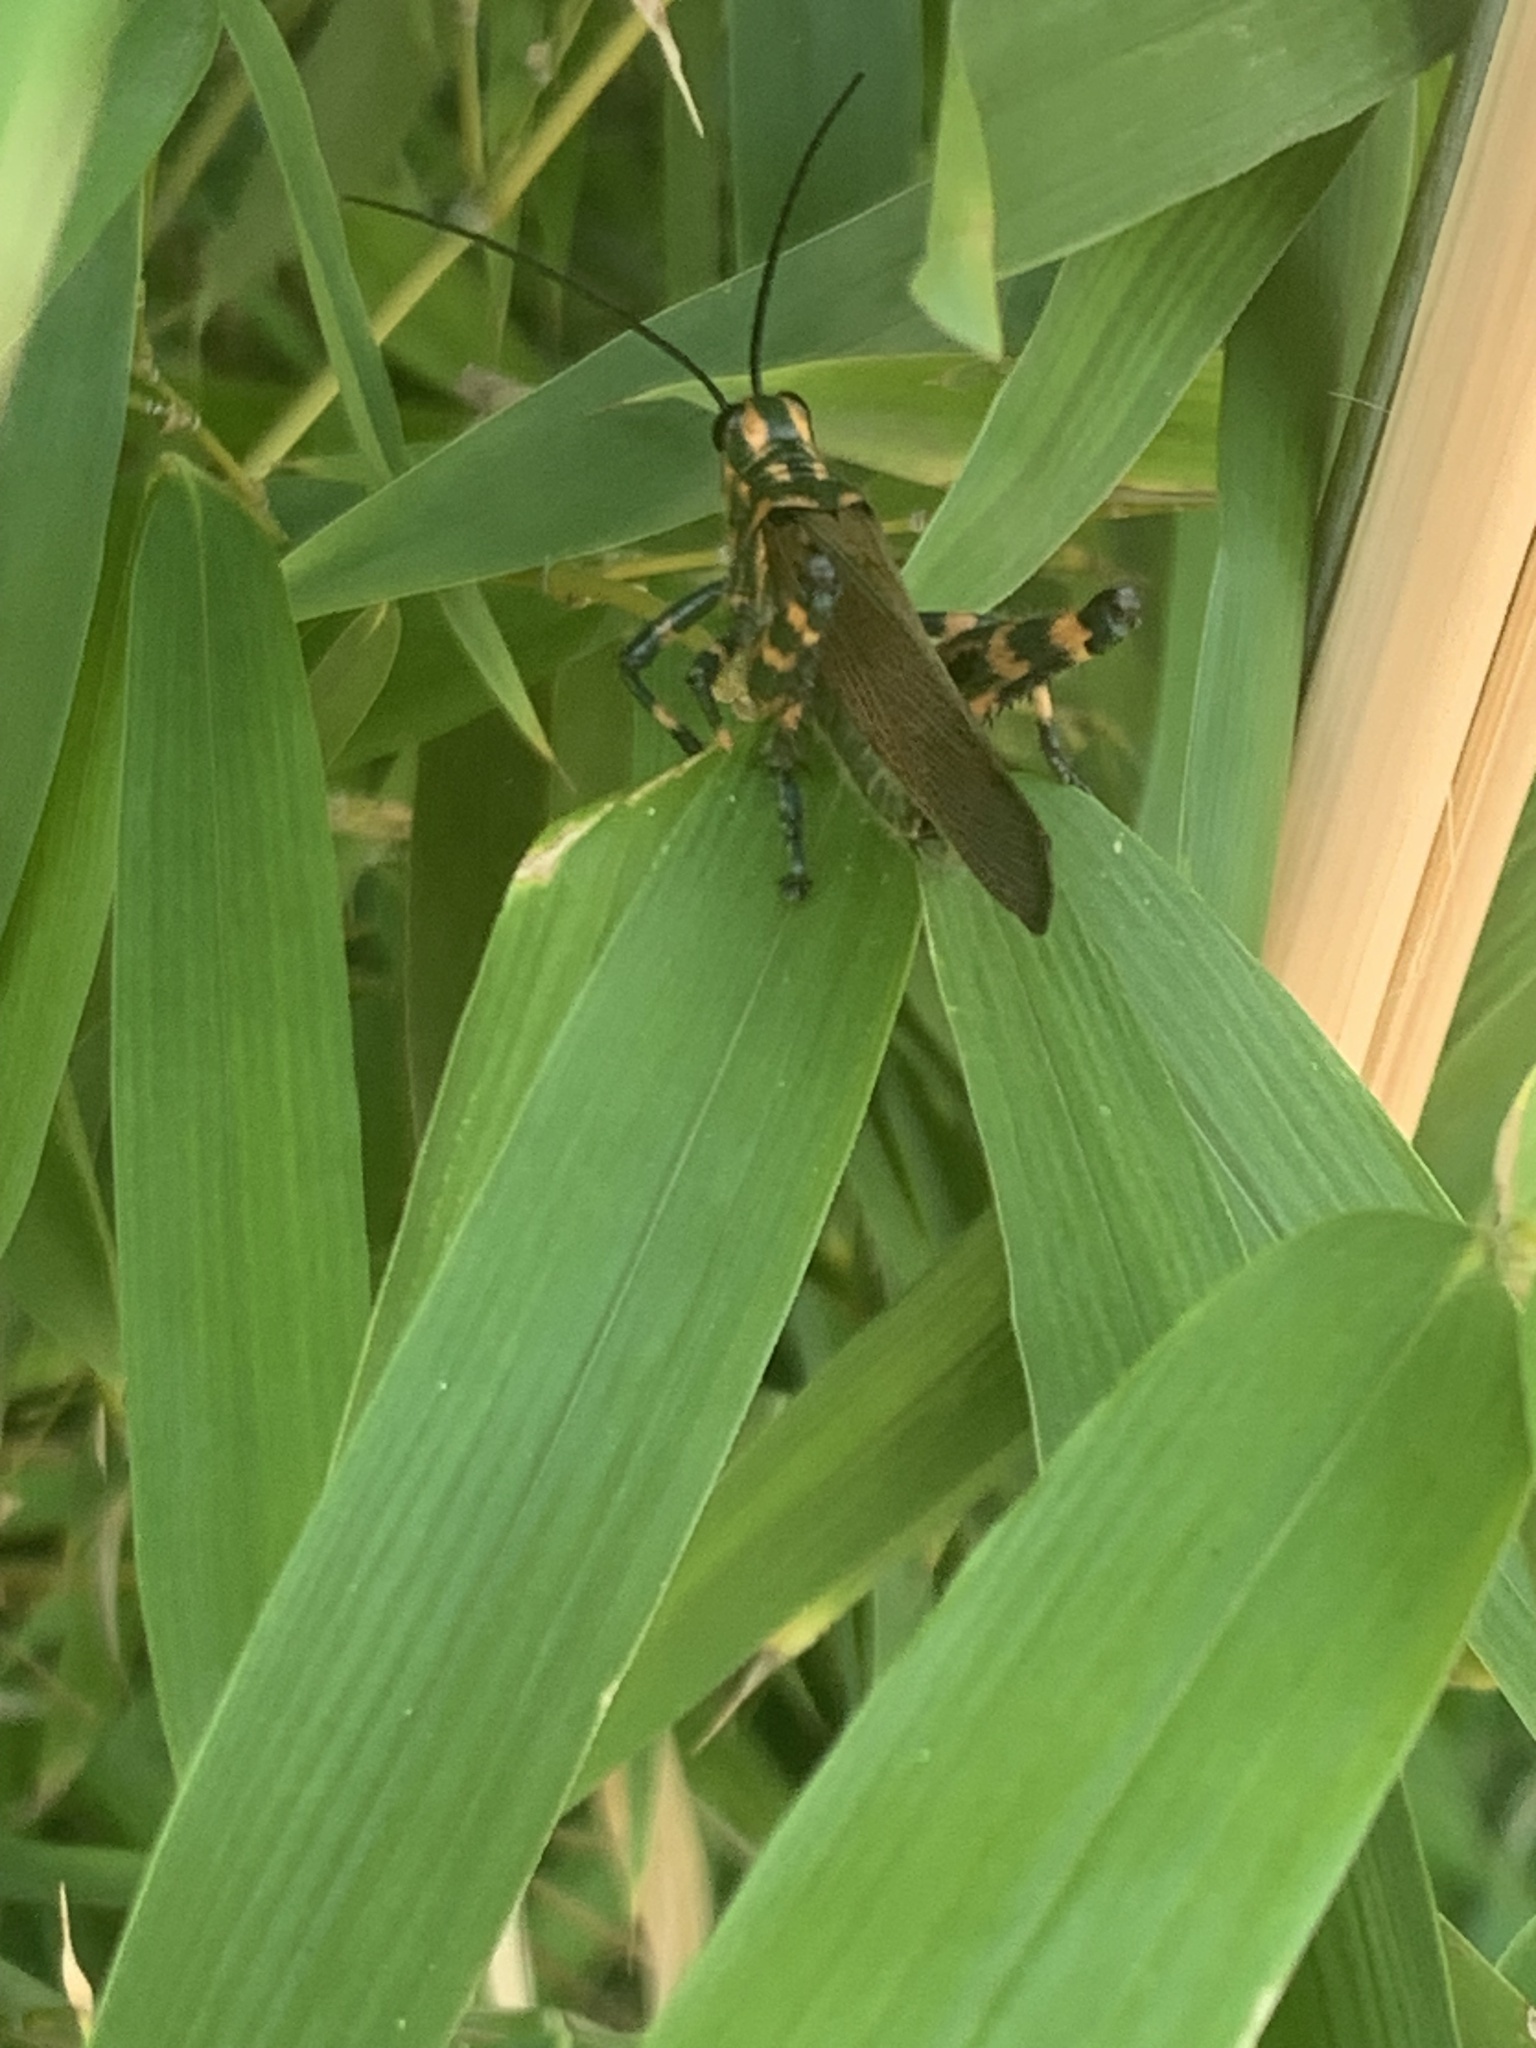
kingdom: Animalia
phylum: Arthropoda
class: Insecta
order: Orthoptera
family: Romaleidae
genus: Chromacris
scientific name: Chromacris speciosa
